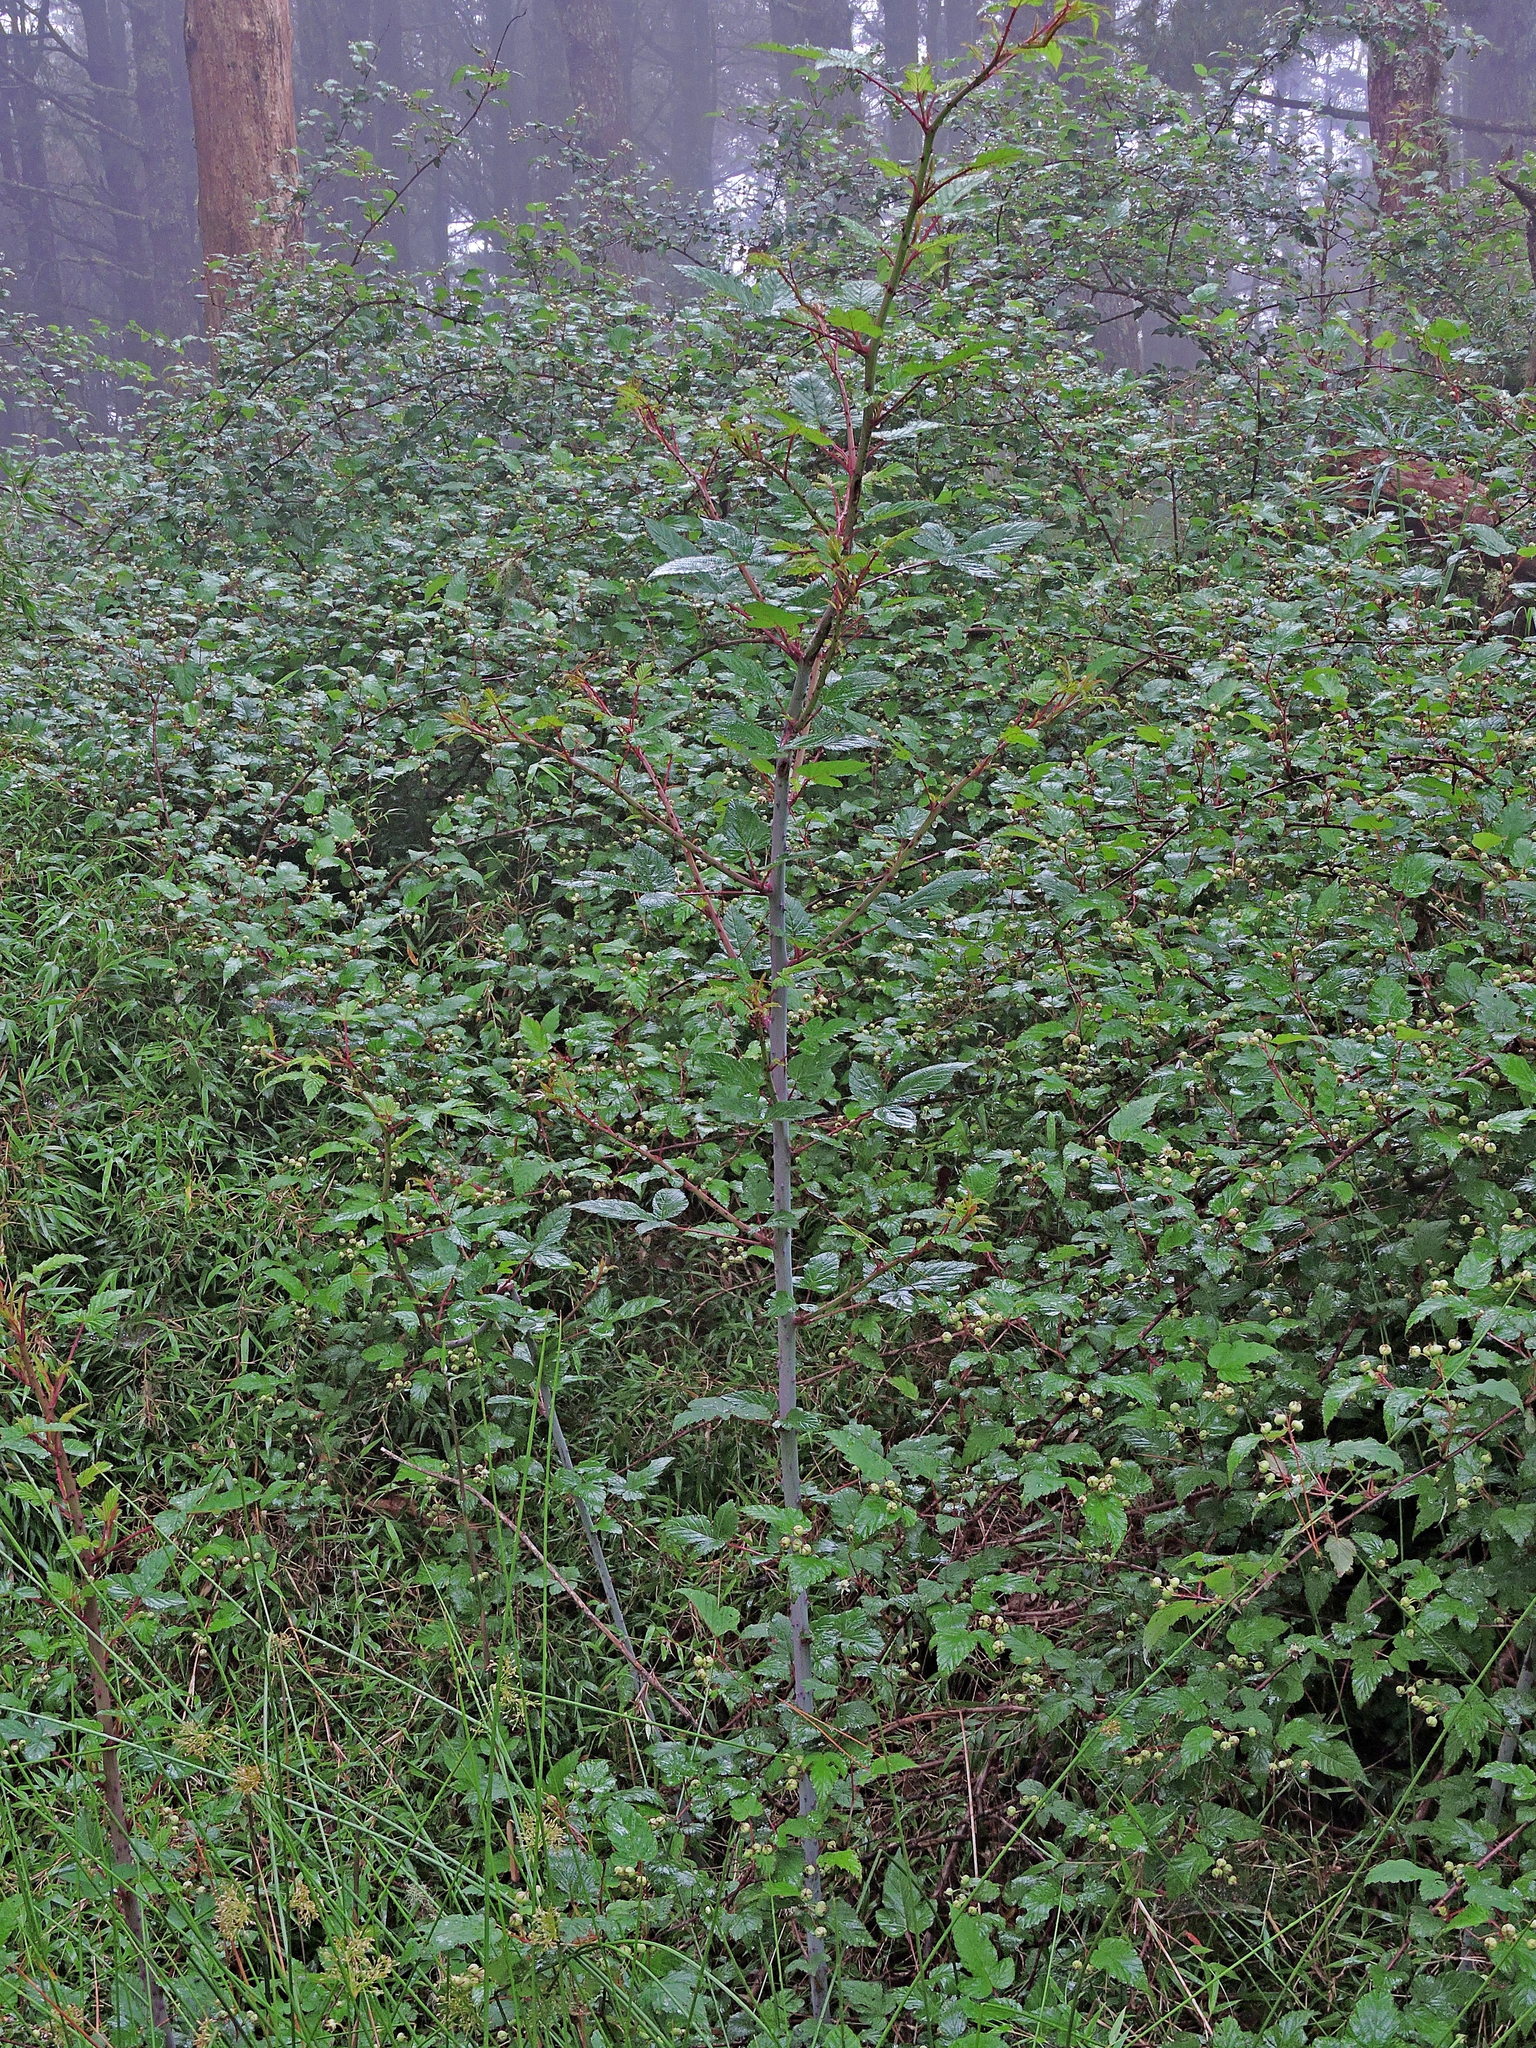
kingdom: Plantae
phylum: Tracheophyta
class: Magnoliopsida
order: Rosales
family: Rosaceae
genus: Rubus
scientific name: Rubus subcrataegifolius
